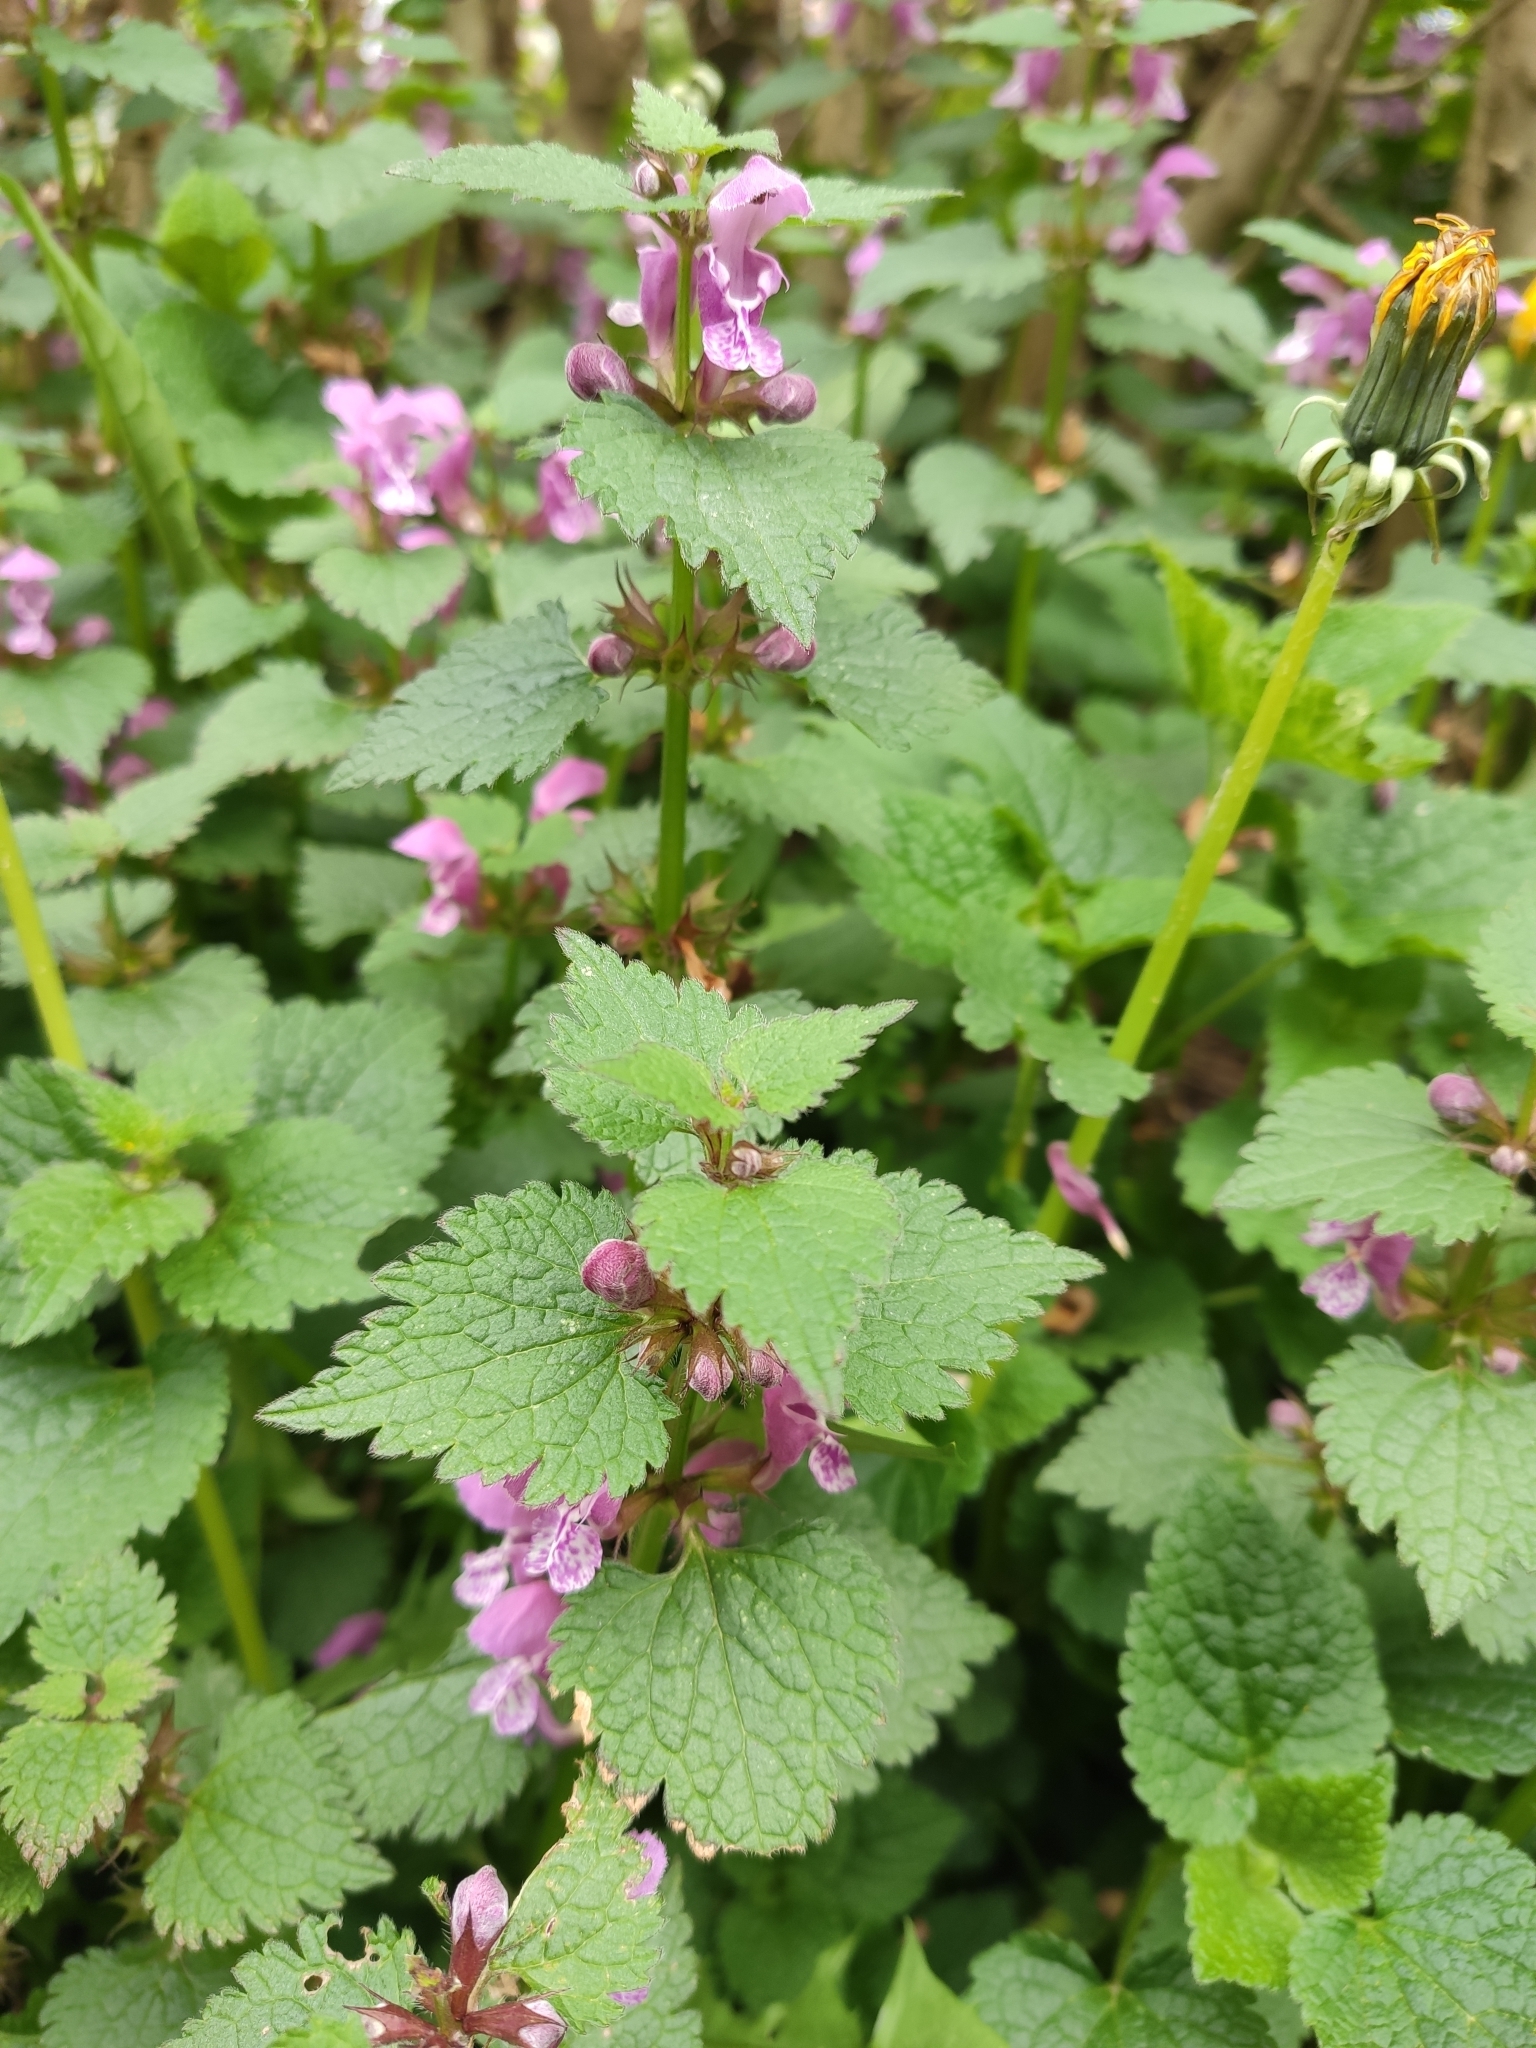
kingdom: Plantae
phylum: Tracheophyta
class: Magnoliopsida
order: Lamiales
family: Lamiaceae
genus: Lamium
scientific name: Lamium maculatum
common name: Spotted dead-nettle
